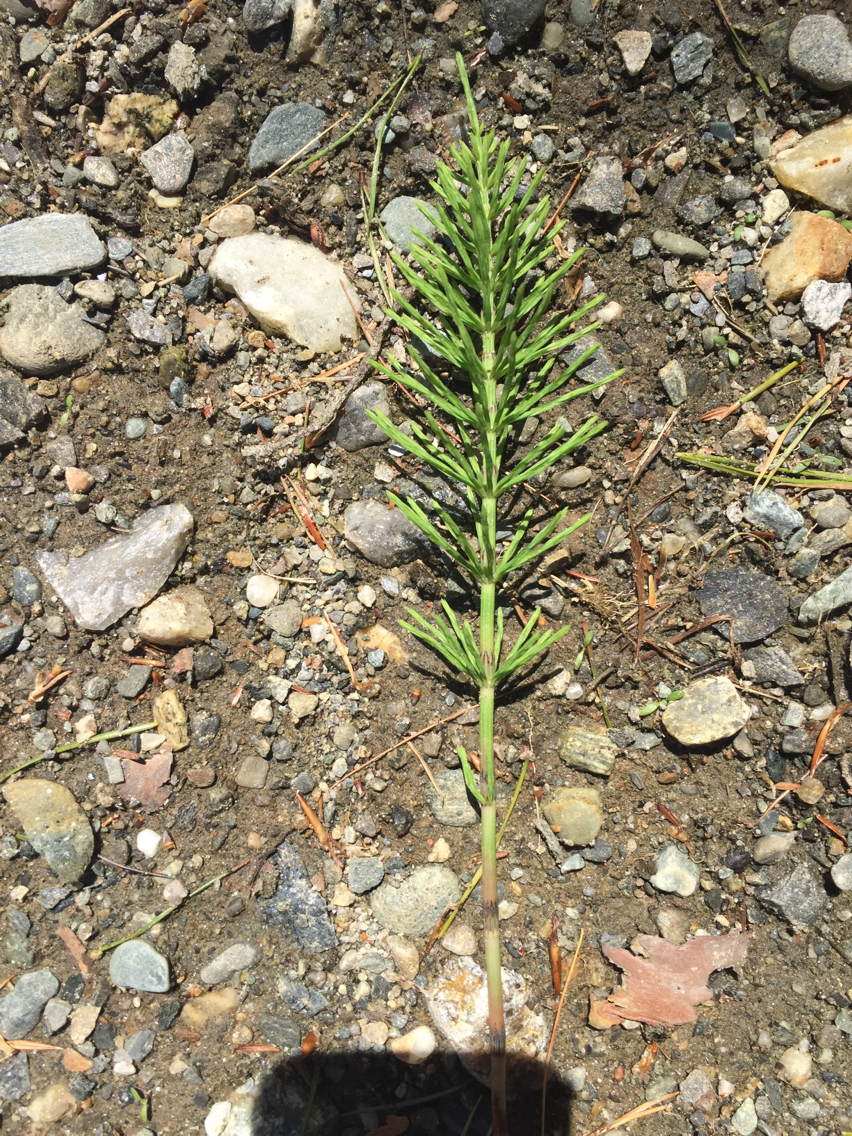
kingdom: Plantae
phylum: Tracheophyta
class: Polypodiopsida
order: Equisetales
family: Equisetaceae
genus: Equisetum
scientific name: Equisetum arvense
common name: Field horsetail
